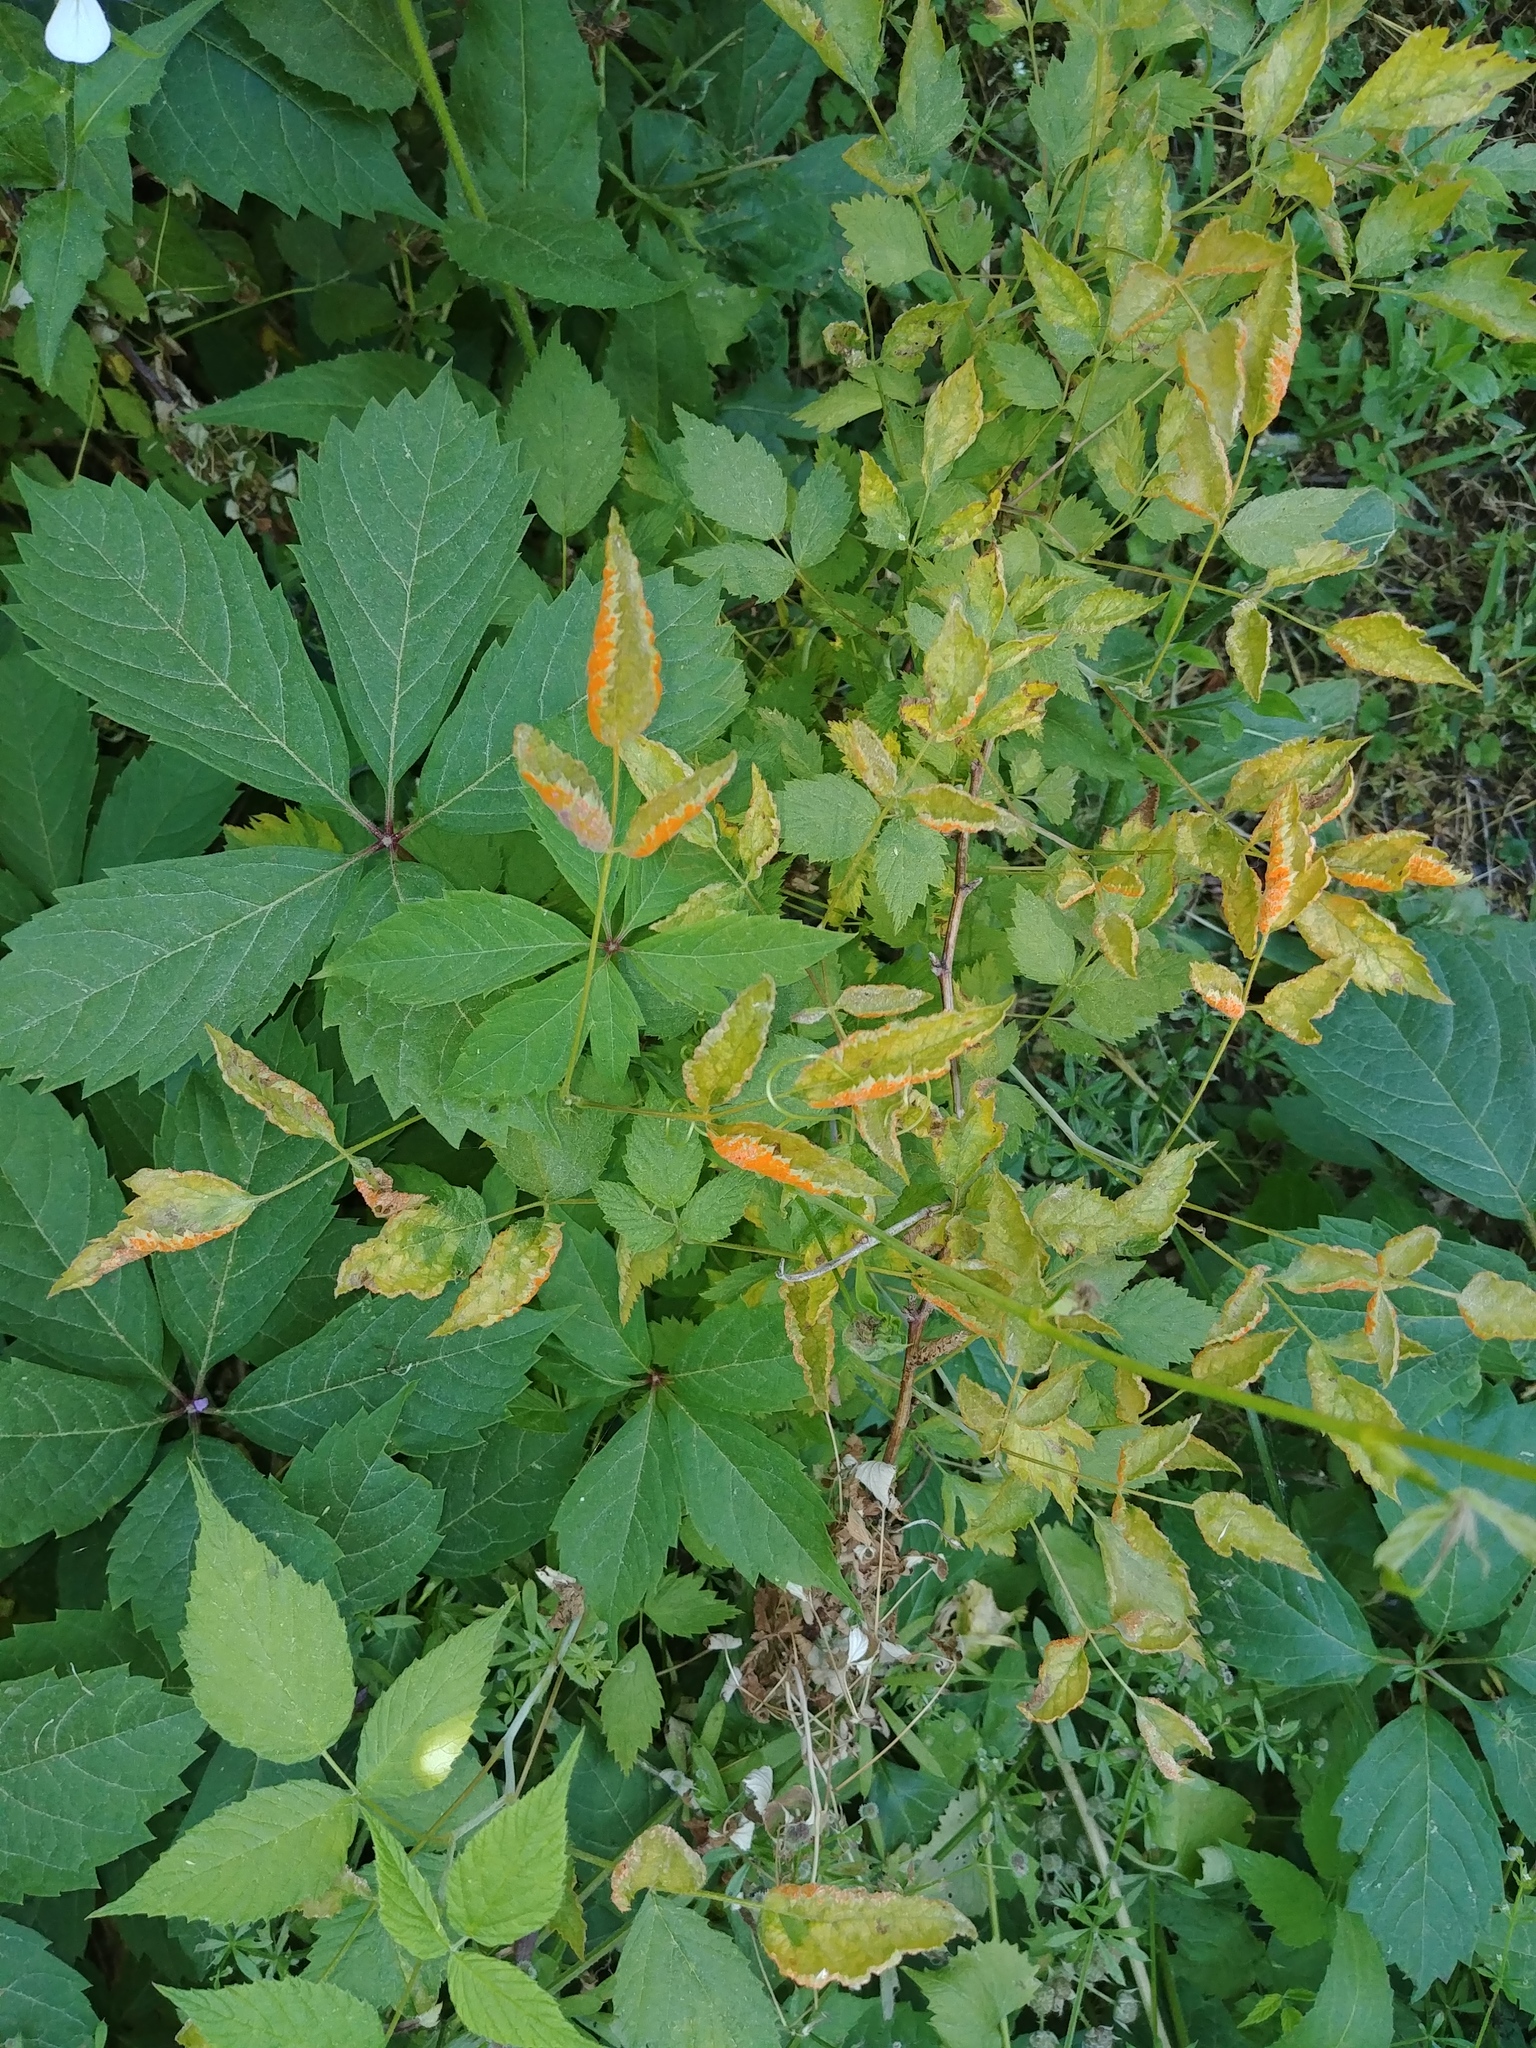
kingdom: Fungi
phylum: Basidiomycota
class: Pucciniomycetes
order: Pucciniales
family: Phragmidiaceae
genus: Arthuriomyces
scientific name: Arthuriomyces peckianus
